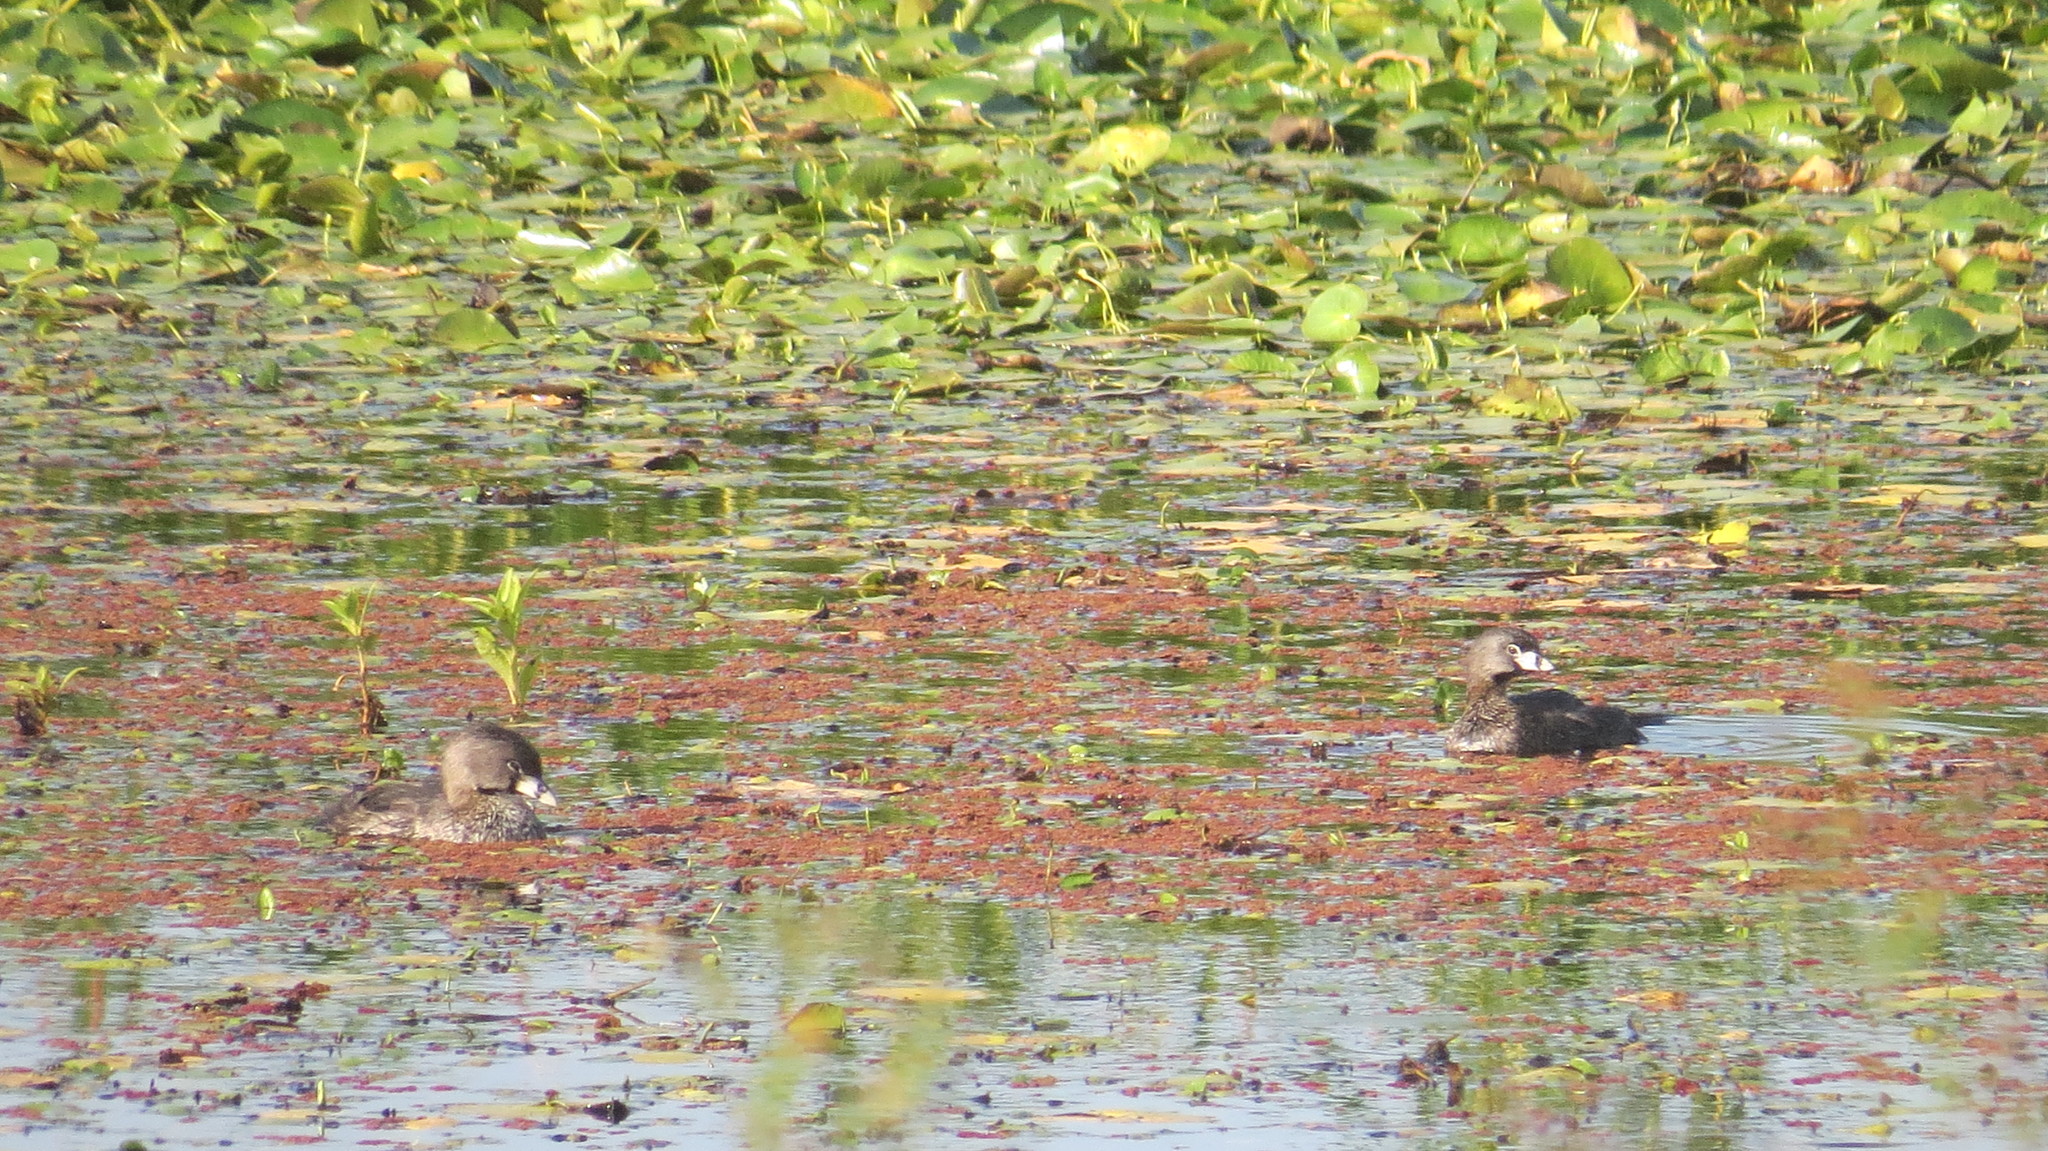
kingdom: Animalia
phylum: Chordata
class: Aves
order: Podicipediformes
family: Podicipedidae
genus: Podilymbus
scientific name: Podilymbus podiceps
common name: Pied-billed grebe
